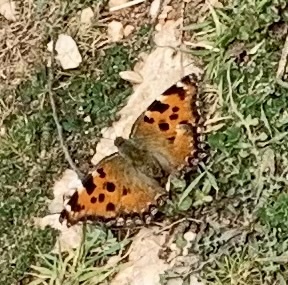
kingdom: Animalia
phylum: Arthropoda
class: Insecta
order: Lepidoptera
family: Nymphalidae
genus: Nymphalis
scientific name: Nymphalis polychloros
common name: Large tortoiseshell
